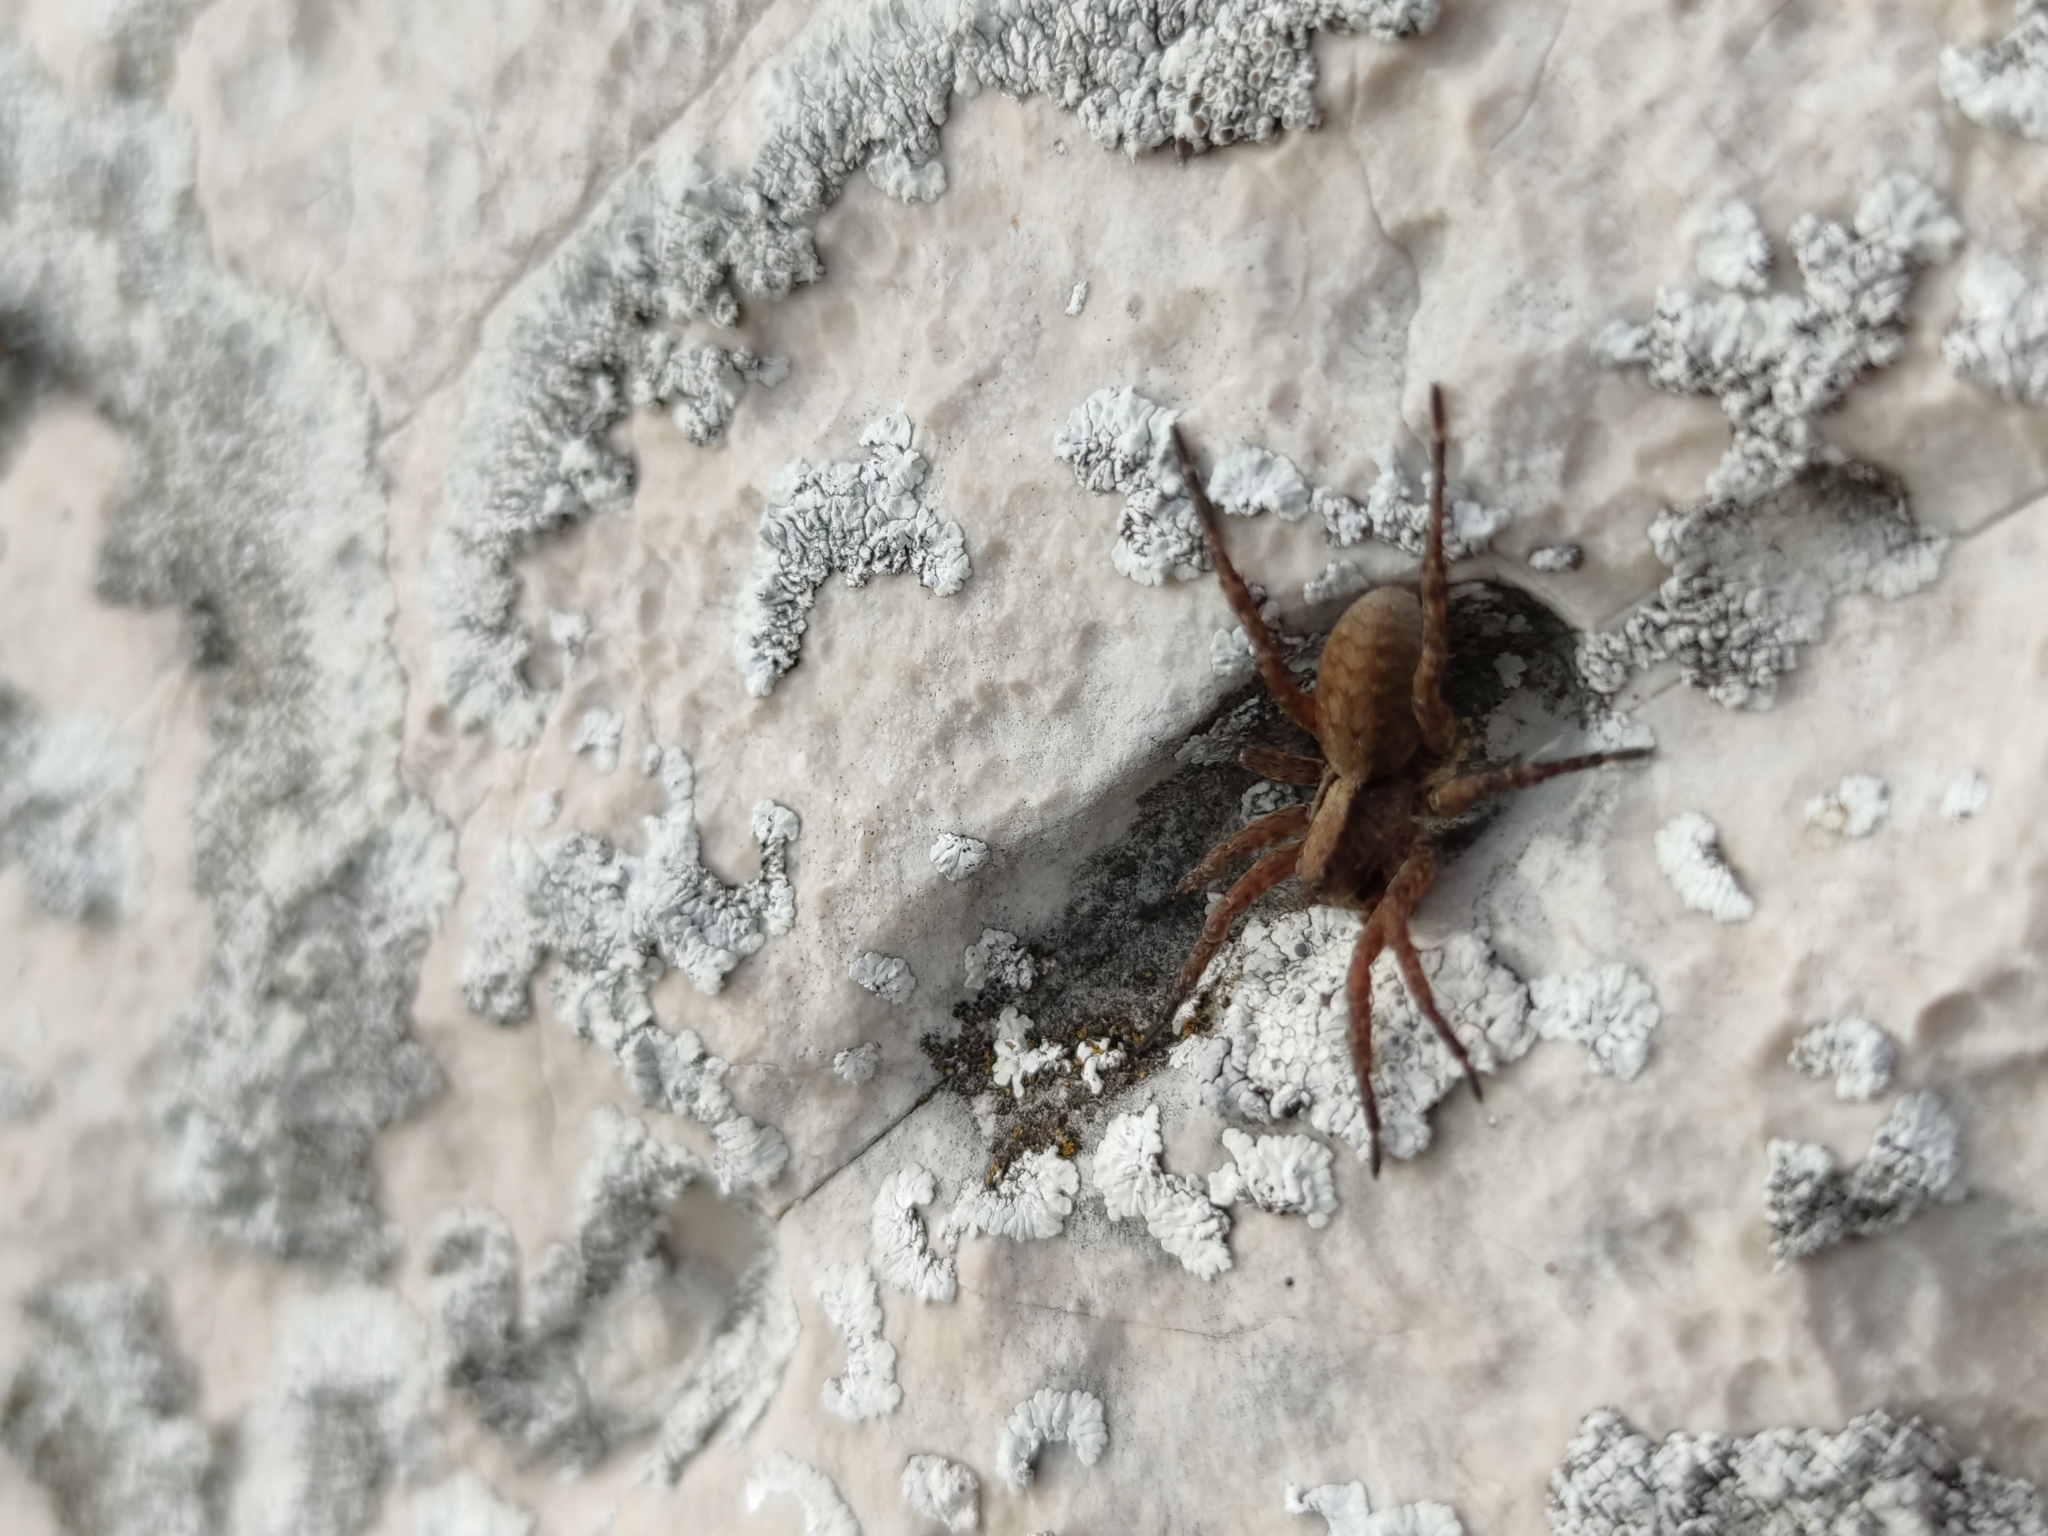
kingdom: Animalia
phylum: Arthropoda
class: Arachnida
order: Araneae
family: Lycosidae
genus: Alopecosa
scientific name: Alopecosa sulzeri
